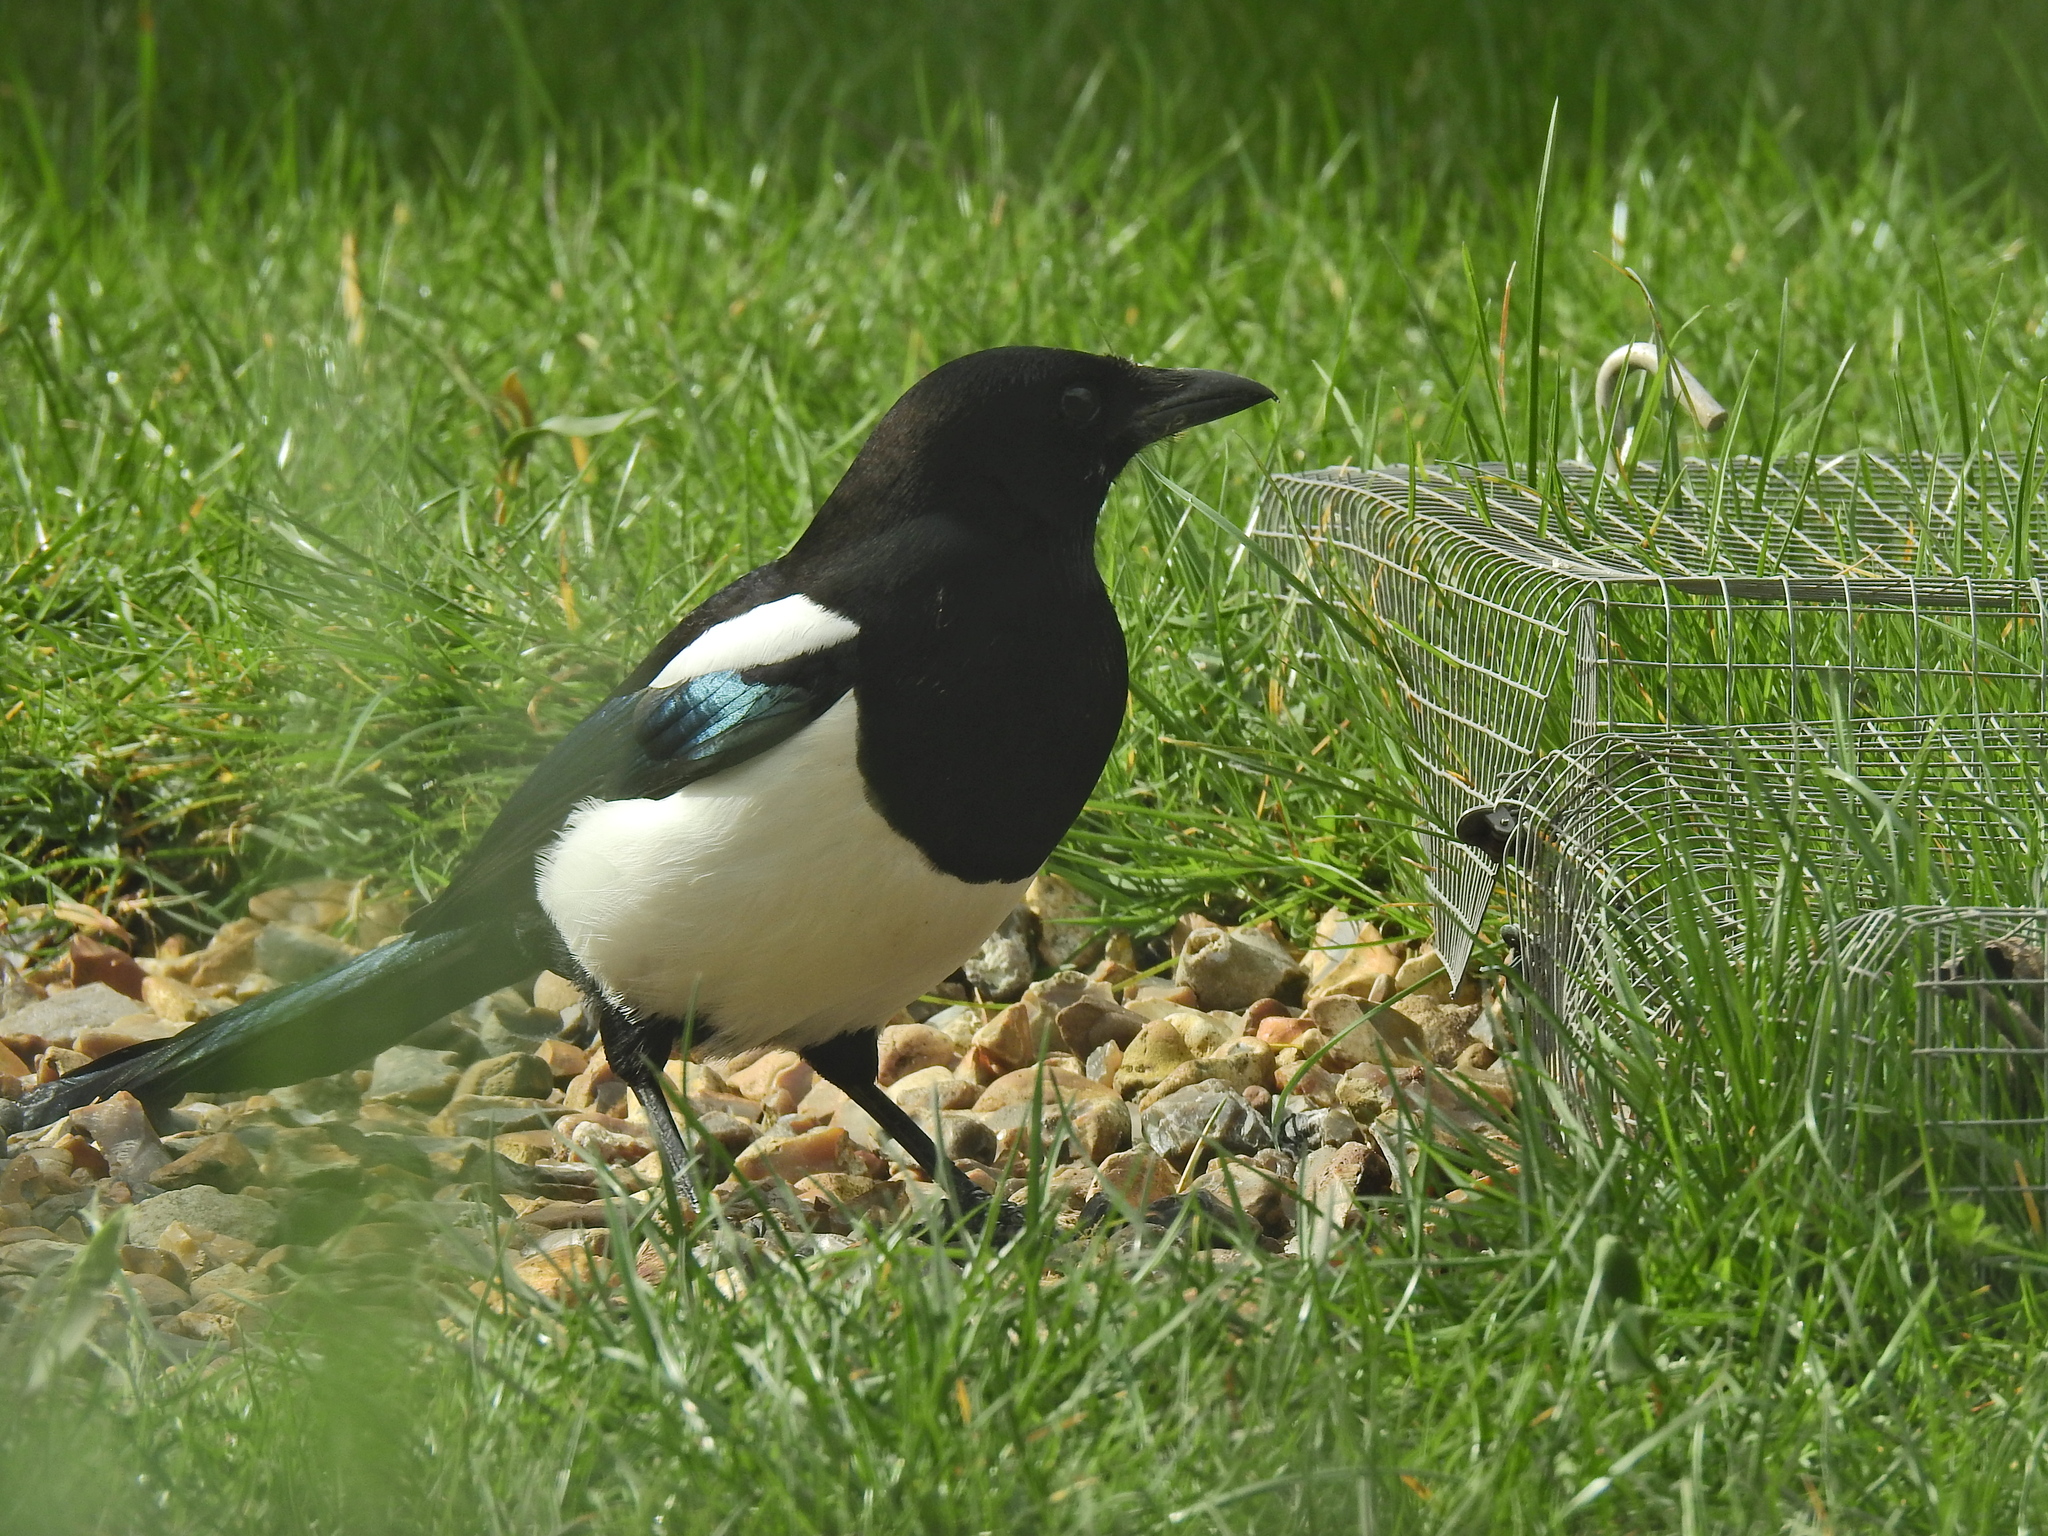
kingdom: Animalia
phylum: Chordata
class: Aves
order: Passeriformes
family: Corvidae
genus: Pica
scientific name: Pica pica
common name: Eurasian magpie
